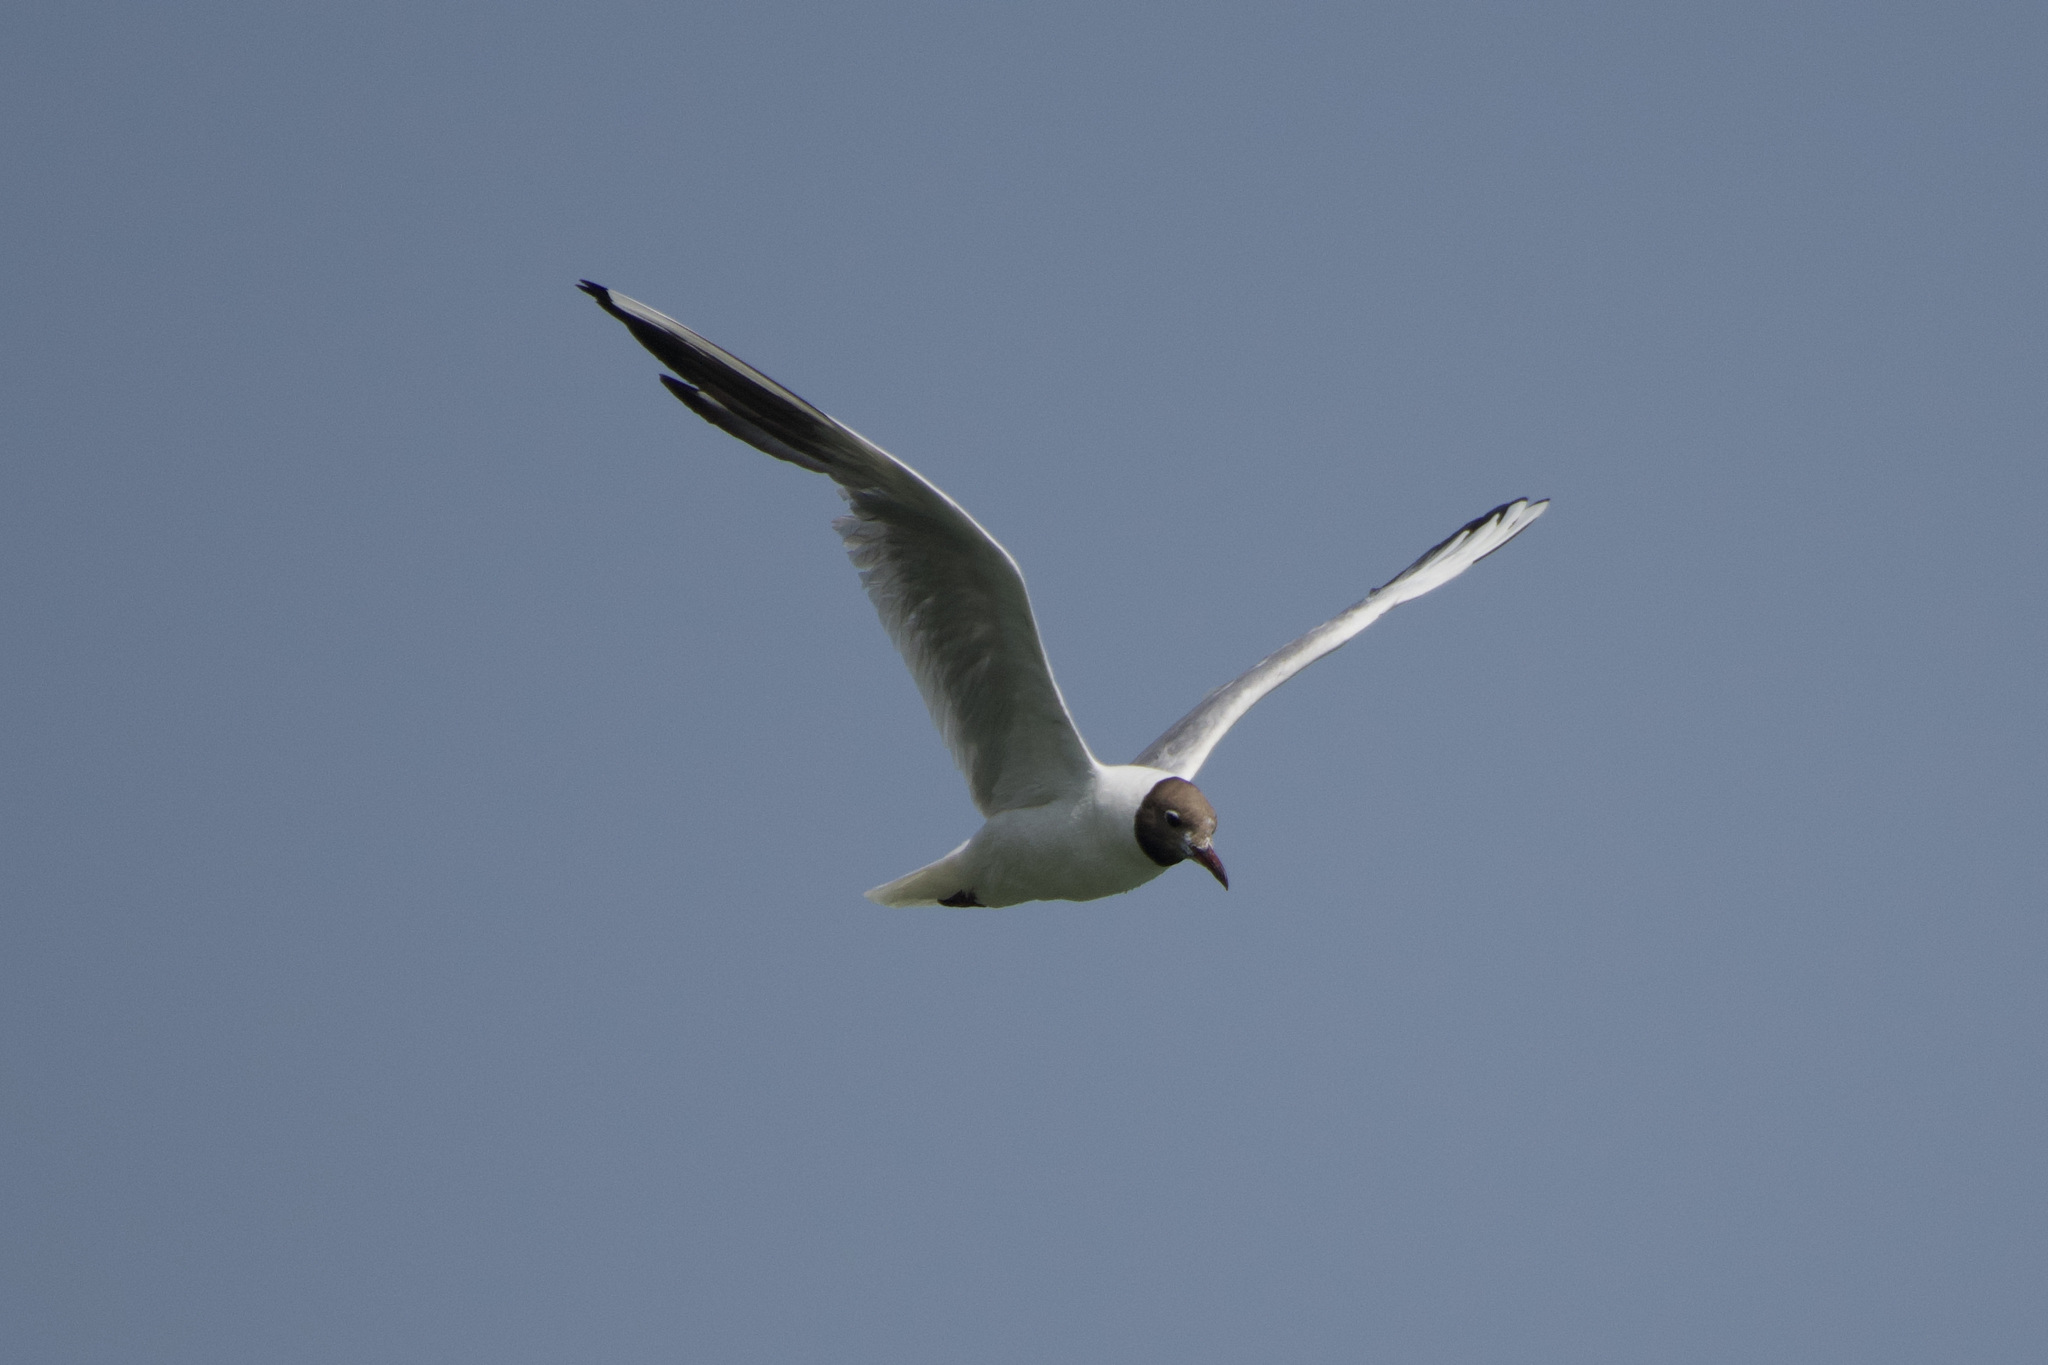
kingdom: Animalia
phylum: Chordata
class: Aves
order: Charadriiformes
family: Laridae
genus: Chroicocephalus
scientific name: Chroicocephalus ridibundus
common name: Black-headed gull
